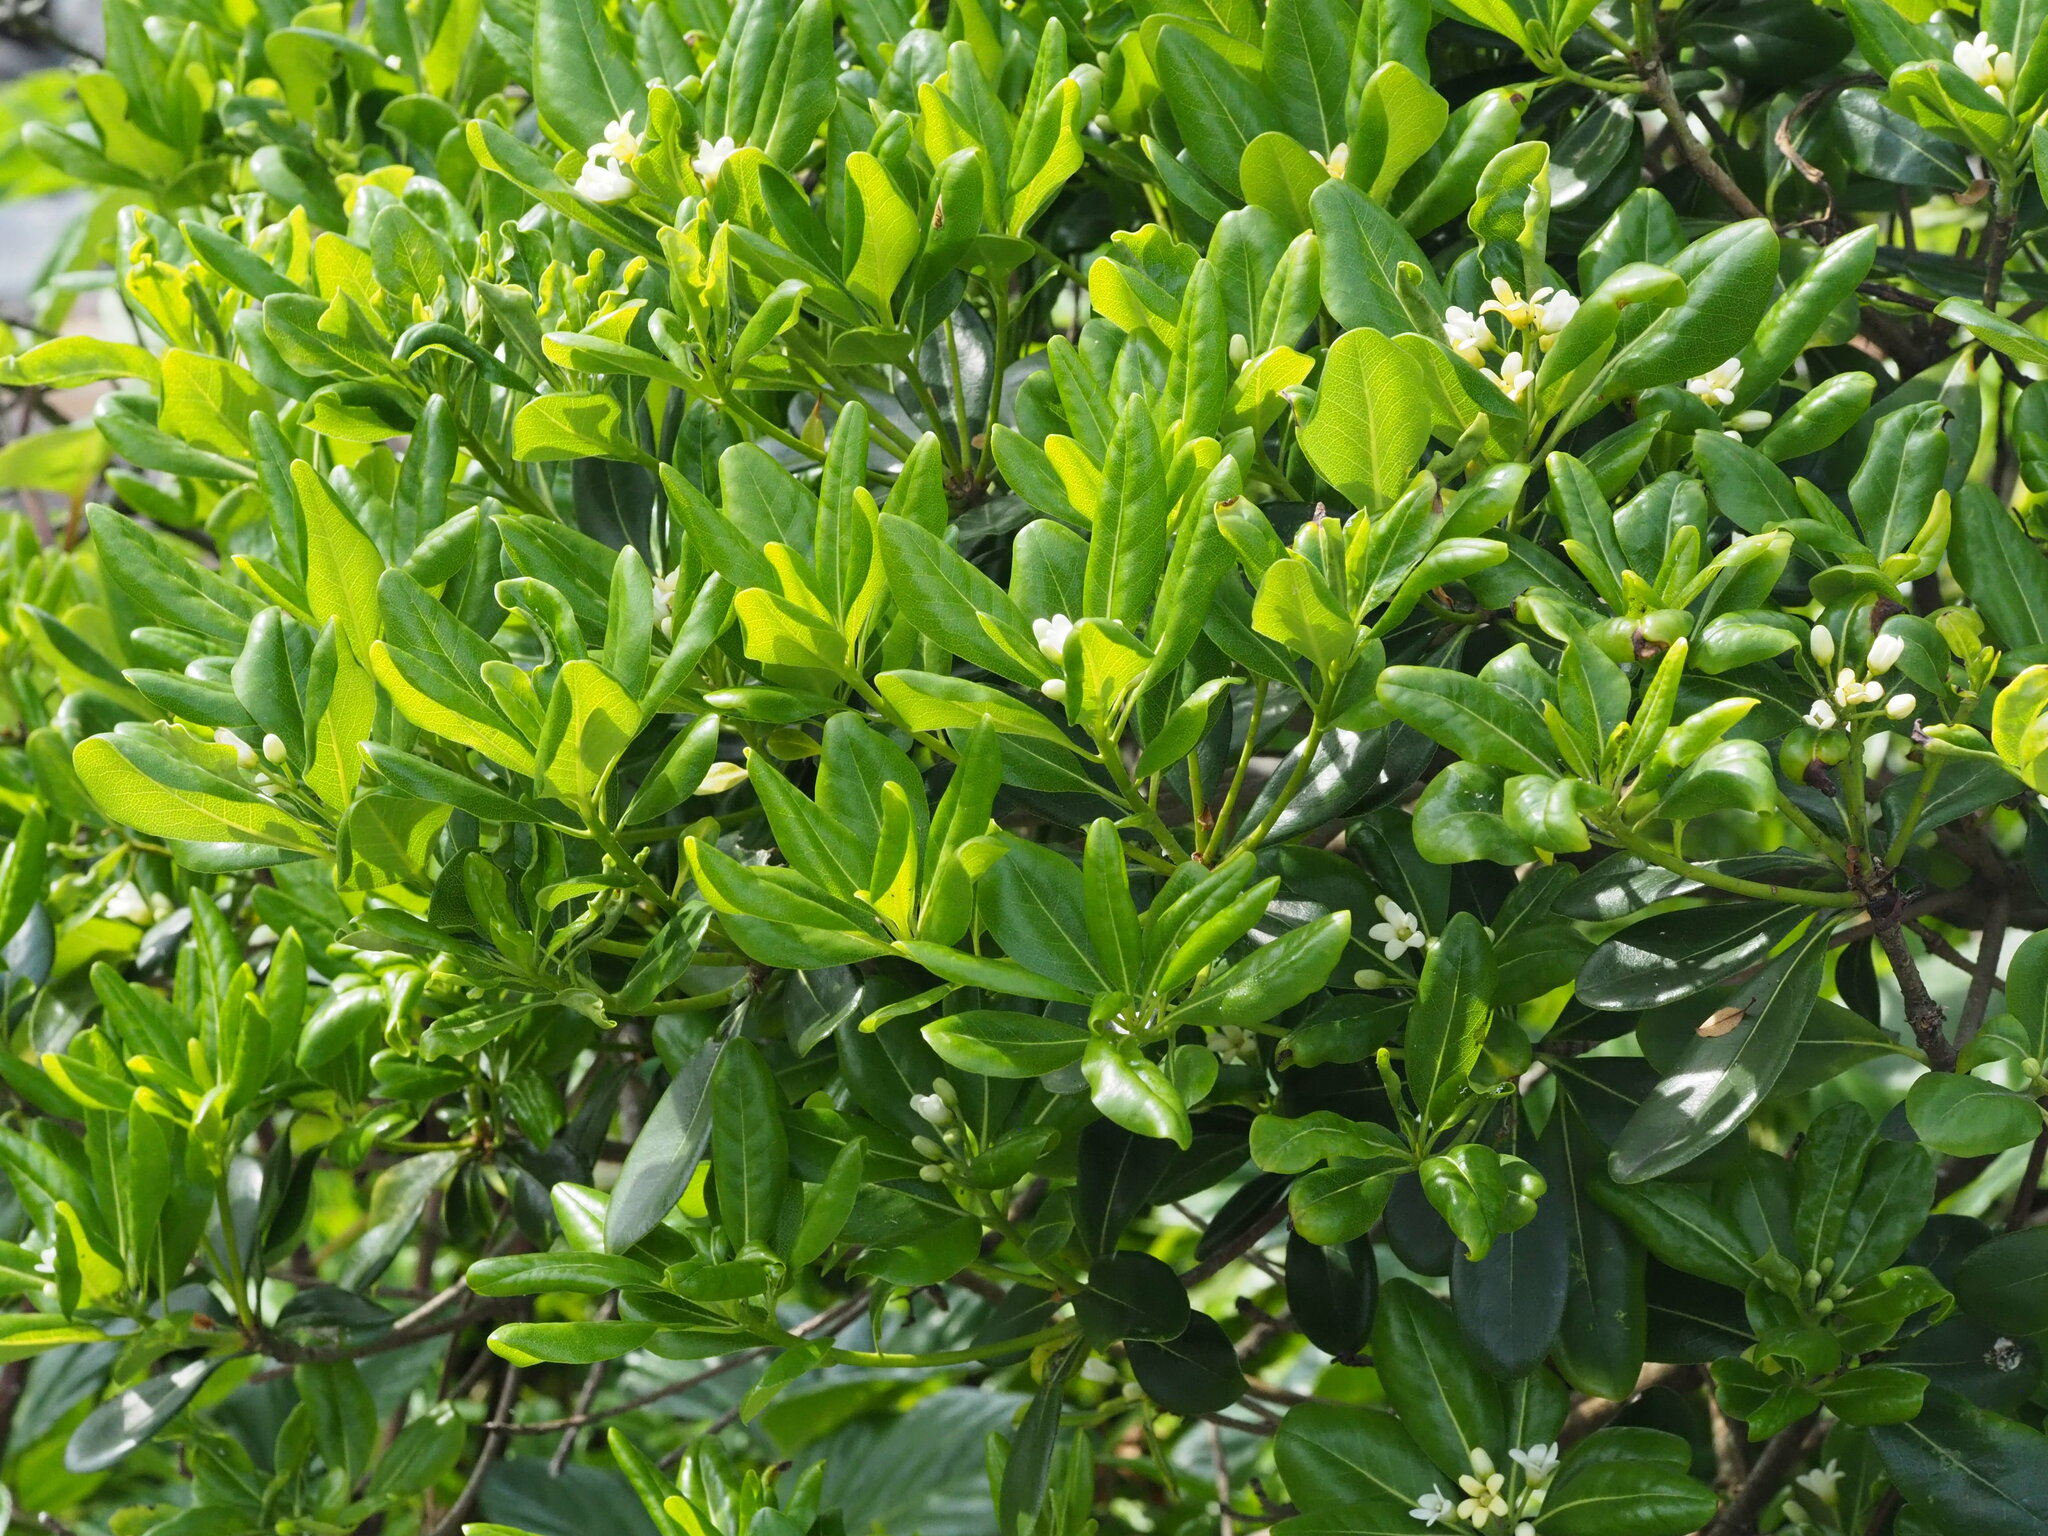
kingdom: Plantae
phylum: Tracheophyta
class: Magnoliopsida
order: Apiales
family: Pittosporaceae
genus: Pittosporum
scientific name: Pittosporum tobira
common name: Japanese cheesewood
